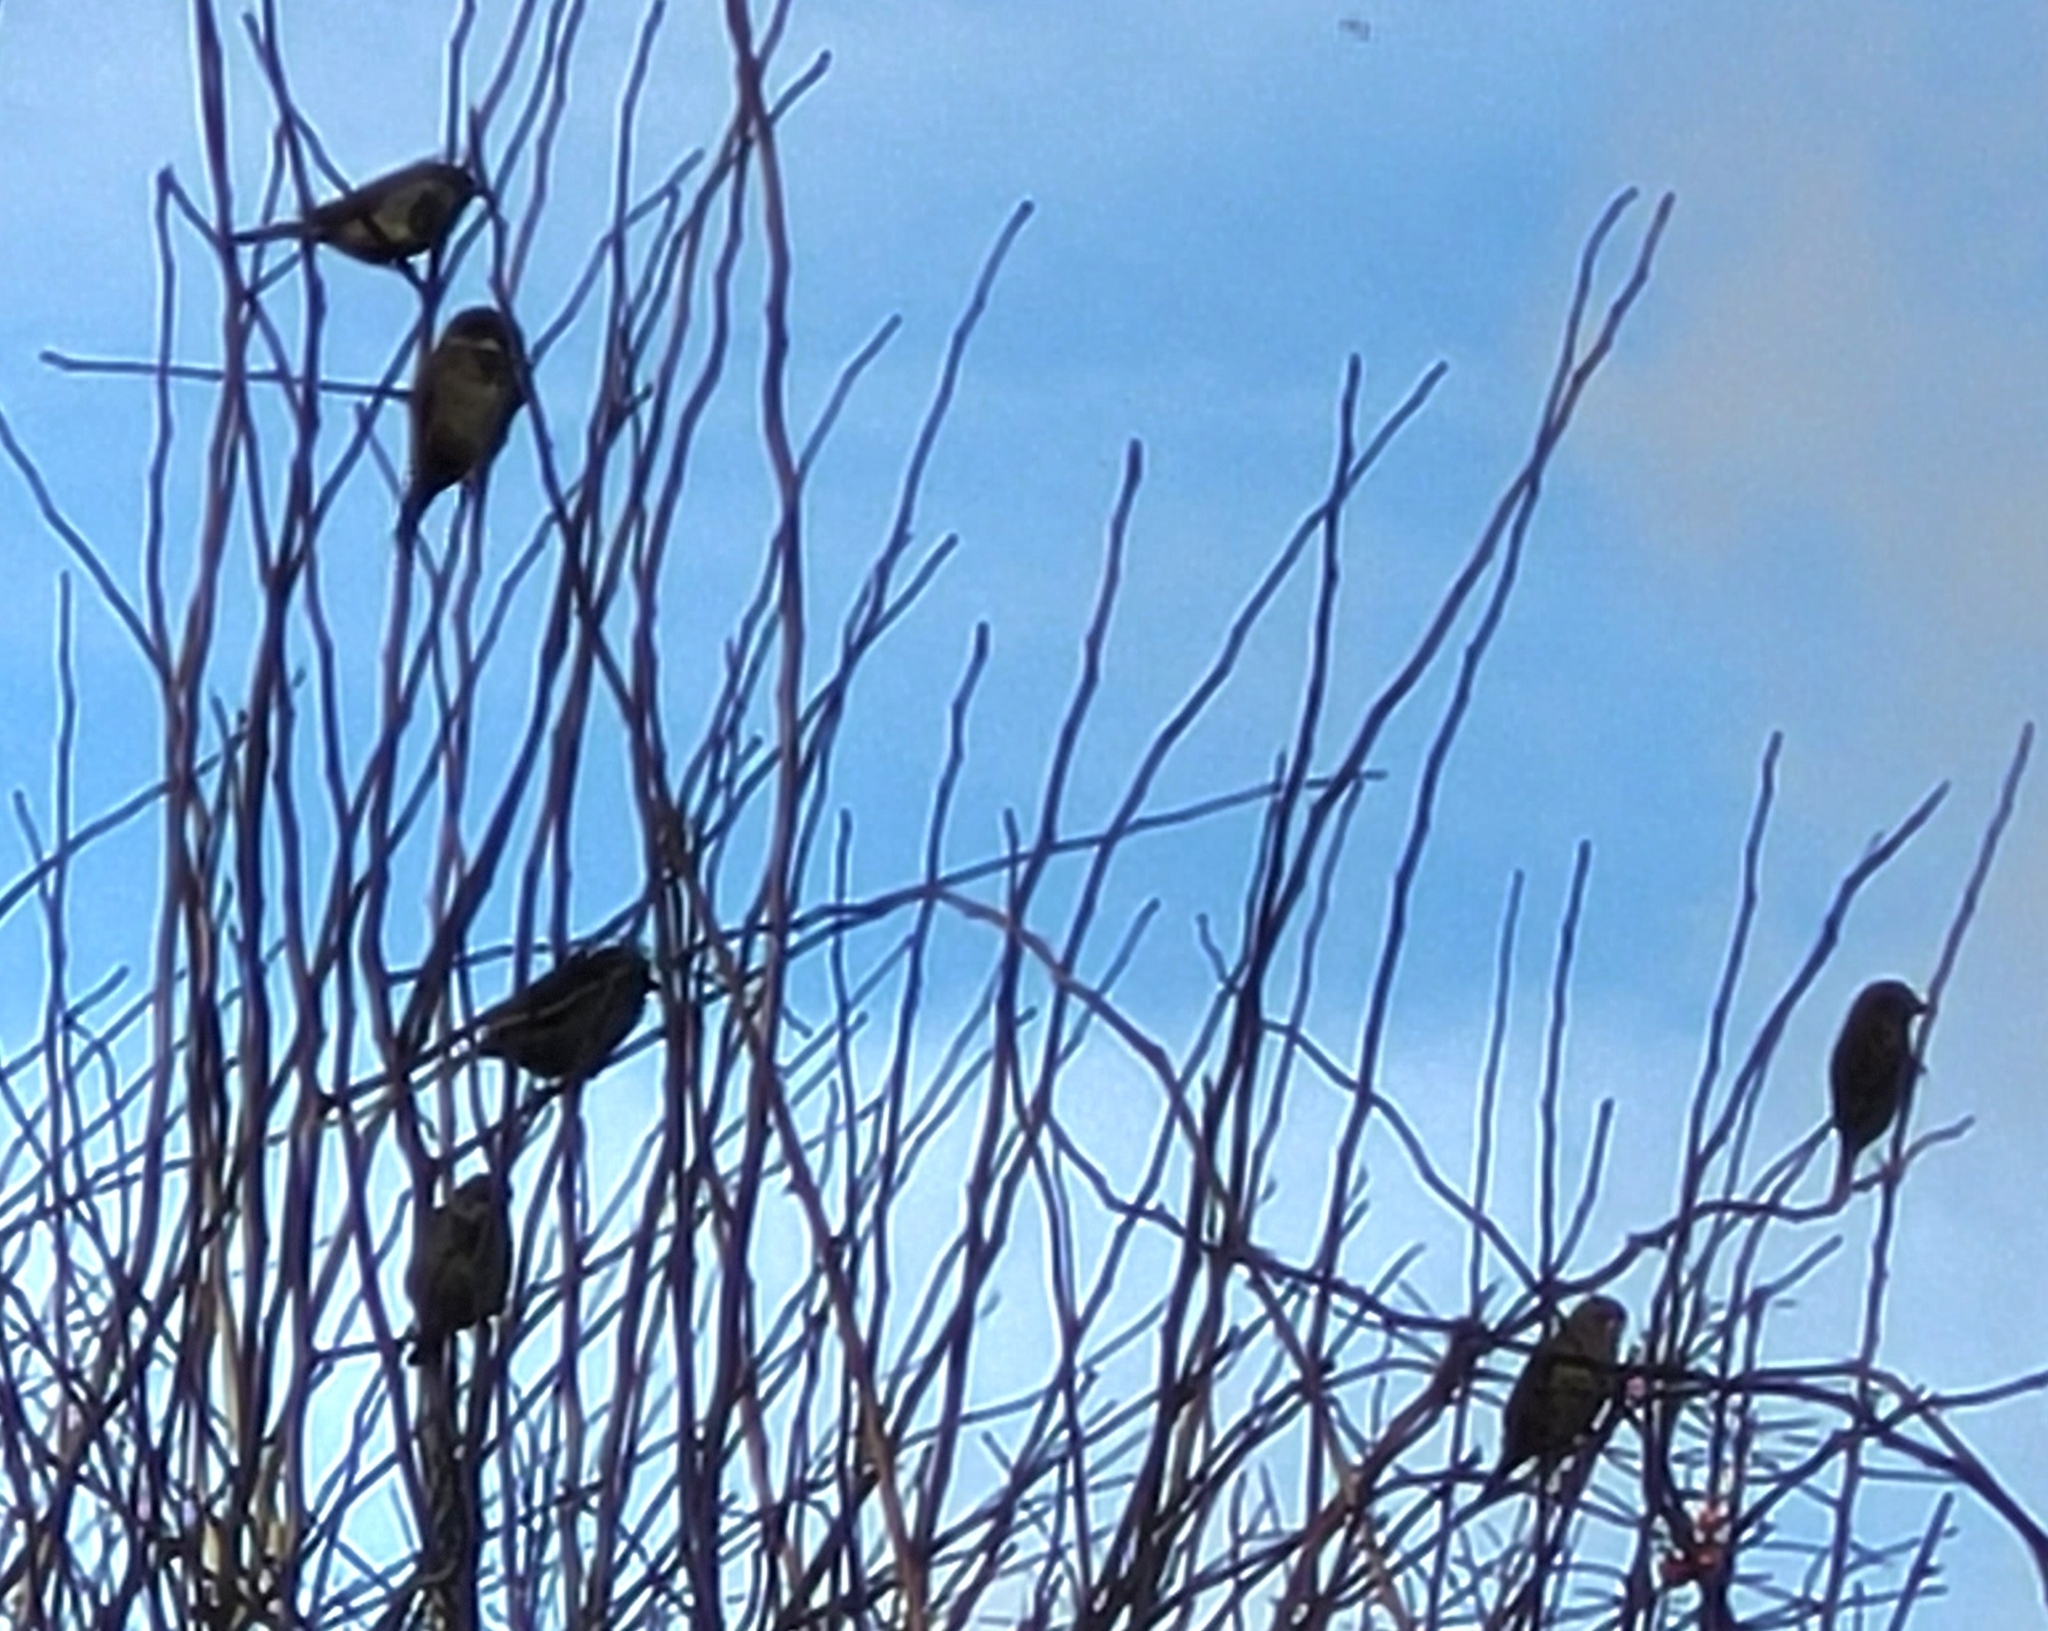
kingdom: Animalia
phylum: Chordata
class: Aves
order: Passeriformes
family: Passeridae
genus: Passer
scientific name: Passer domesticus
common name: House sparrow
